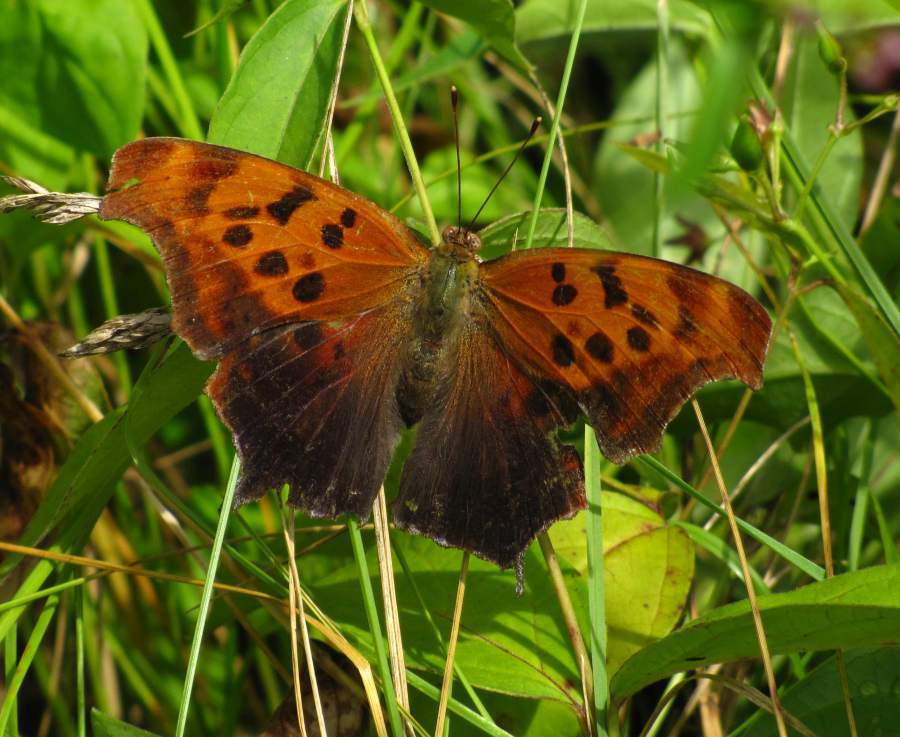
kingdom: Animalia
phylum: Arthropoda
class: Insecta
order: Lepidoptera
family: Nymphalidae
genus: Polygonia
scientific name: Polygonia interrogationis
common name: Question mark
